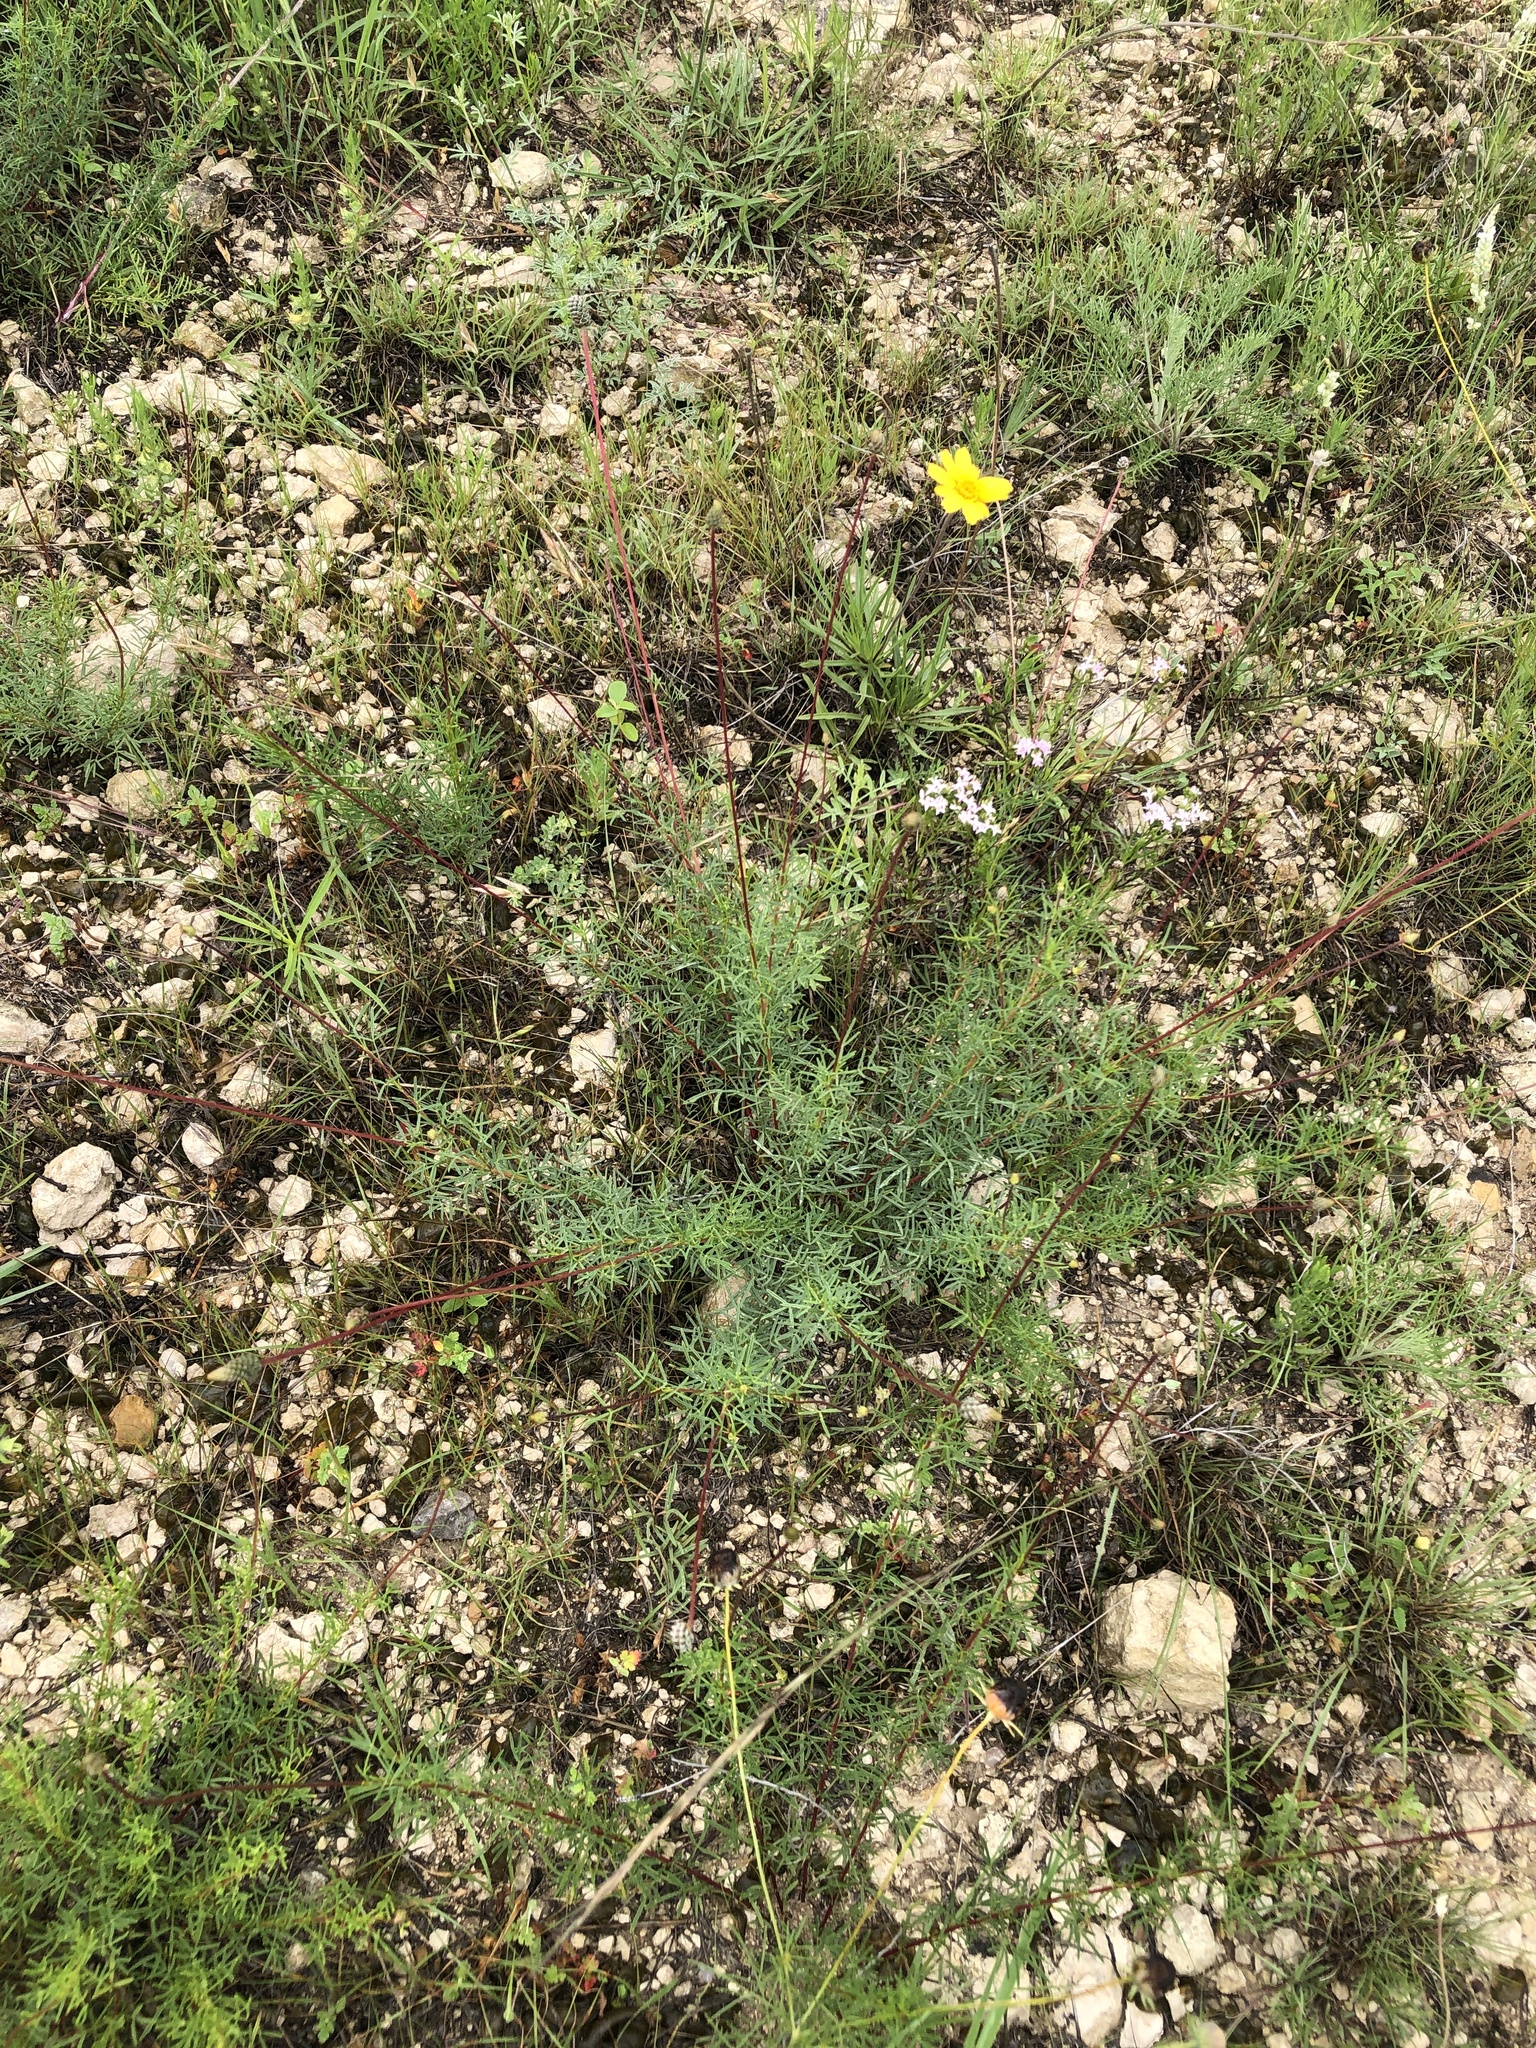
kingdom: Plantae
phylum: Tracheophyta
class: Magnoliopsida
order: Fabales
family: Fabaceae
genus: Dalea
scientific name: Dalea tenuis
